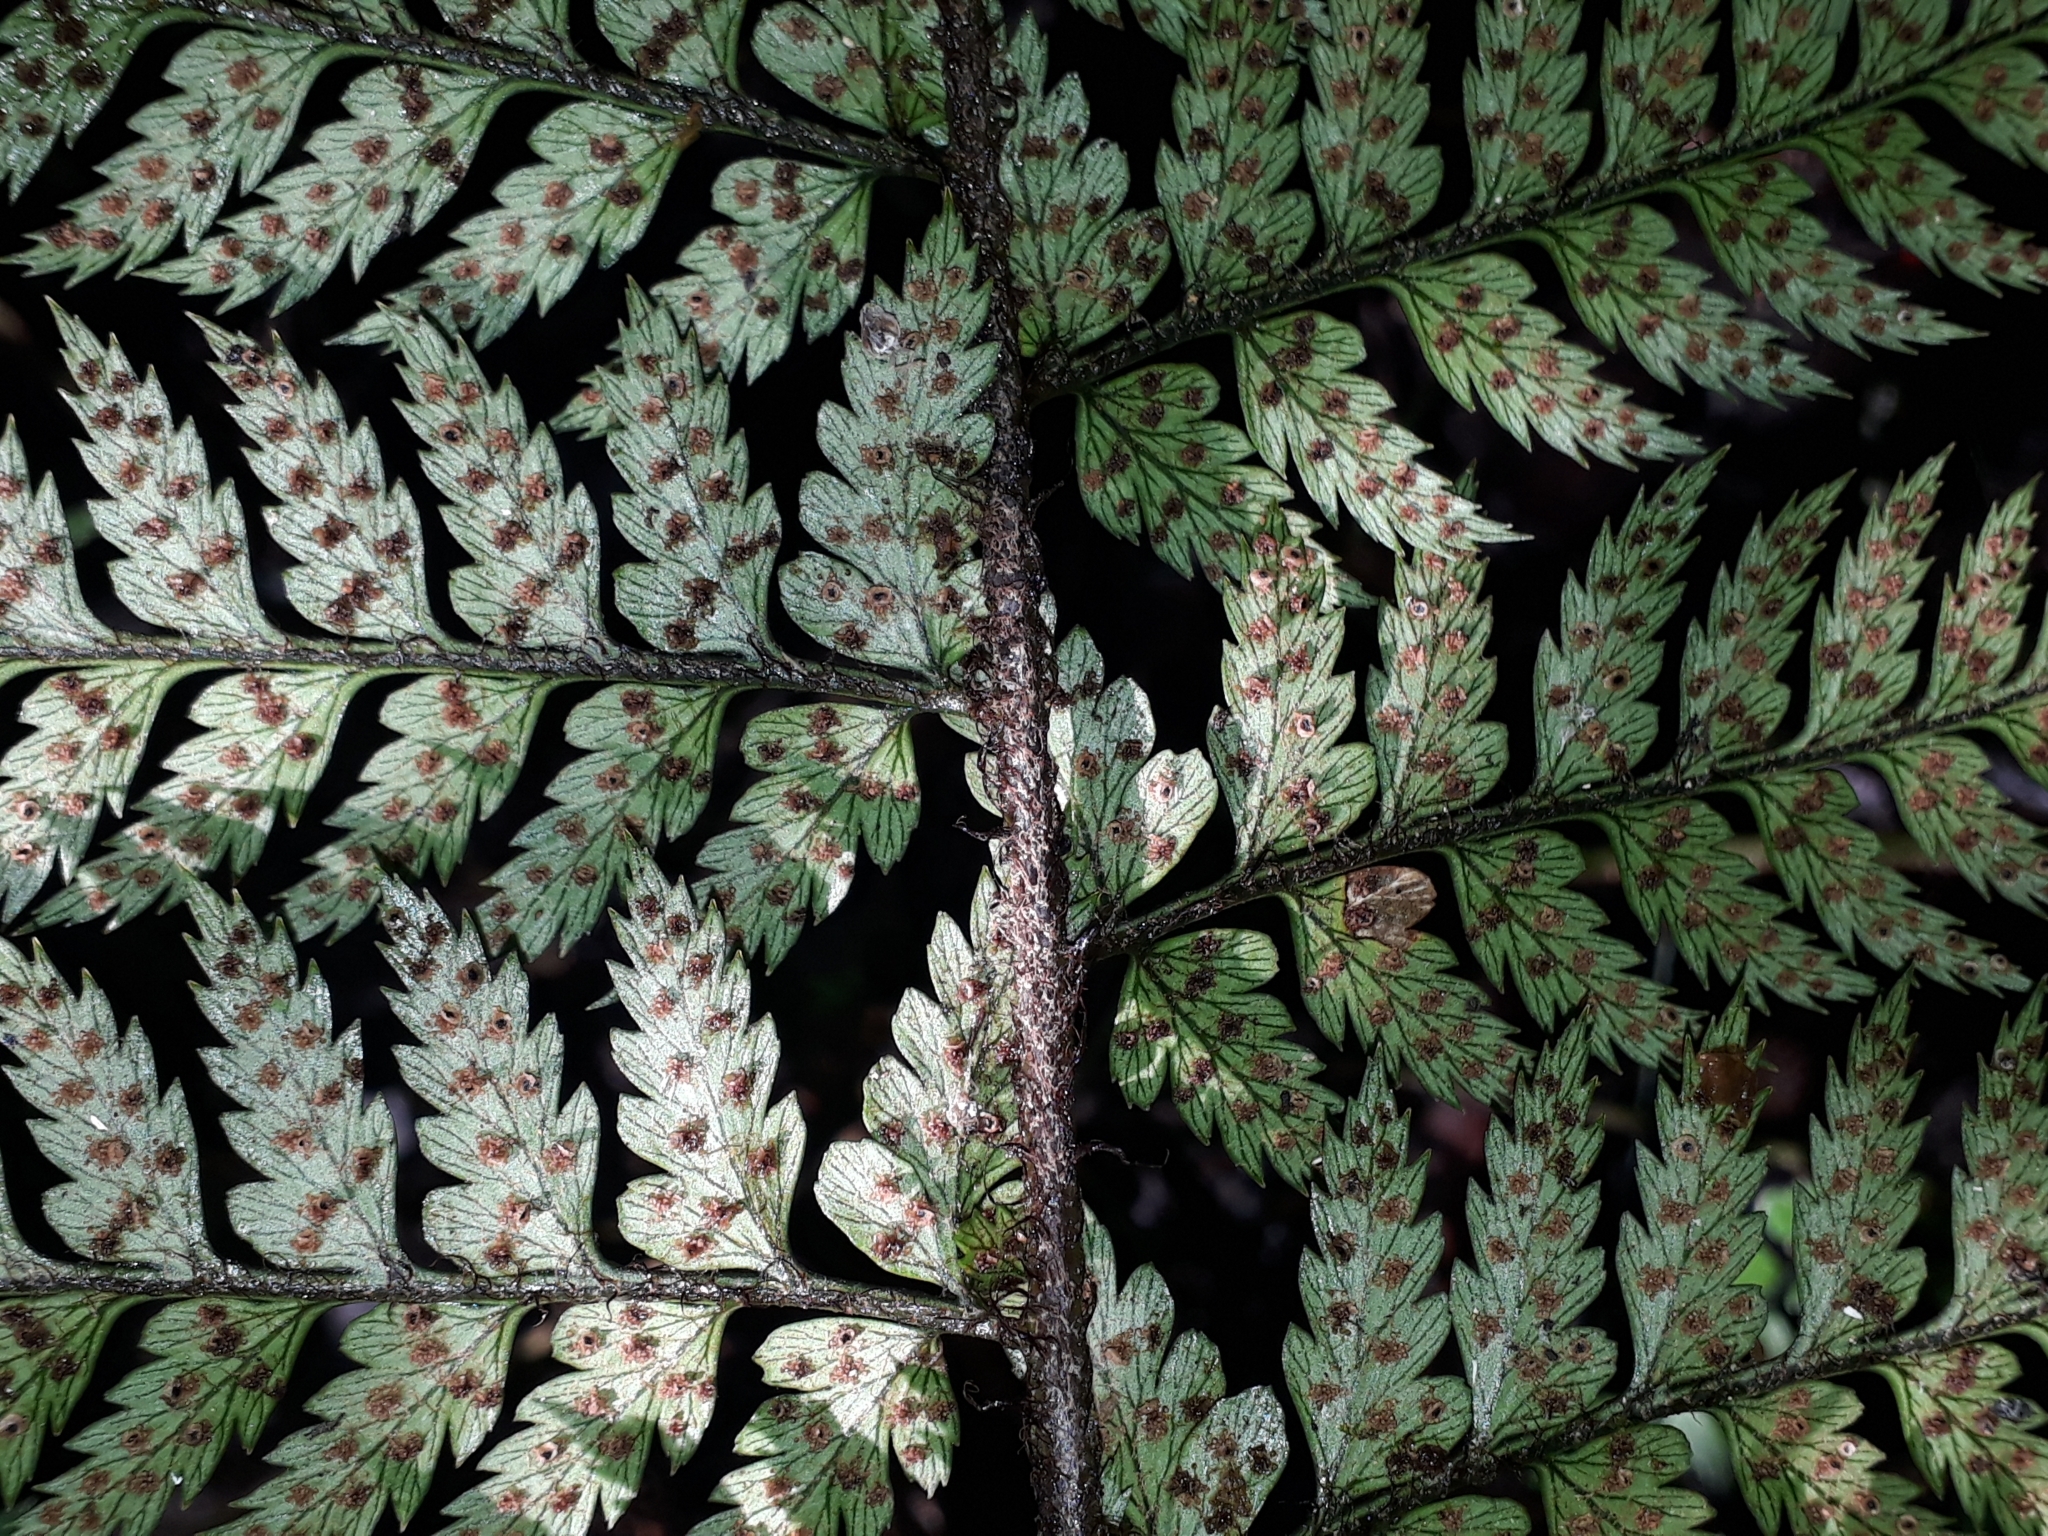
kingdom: Plantae
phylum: Tracheophyta
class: Polypodiopsida
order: Polypodiales
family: Dryopteridaceae
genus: Polystichum
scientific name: Polystichum neozelandicum
